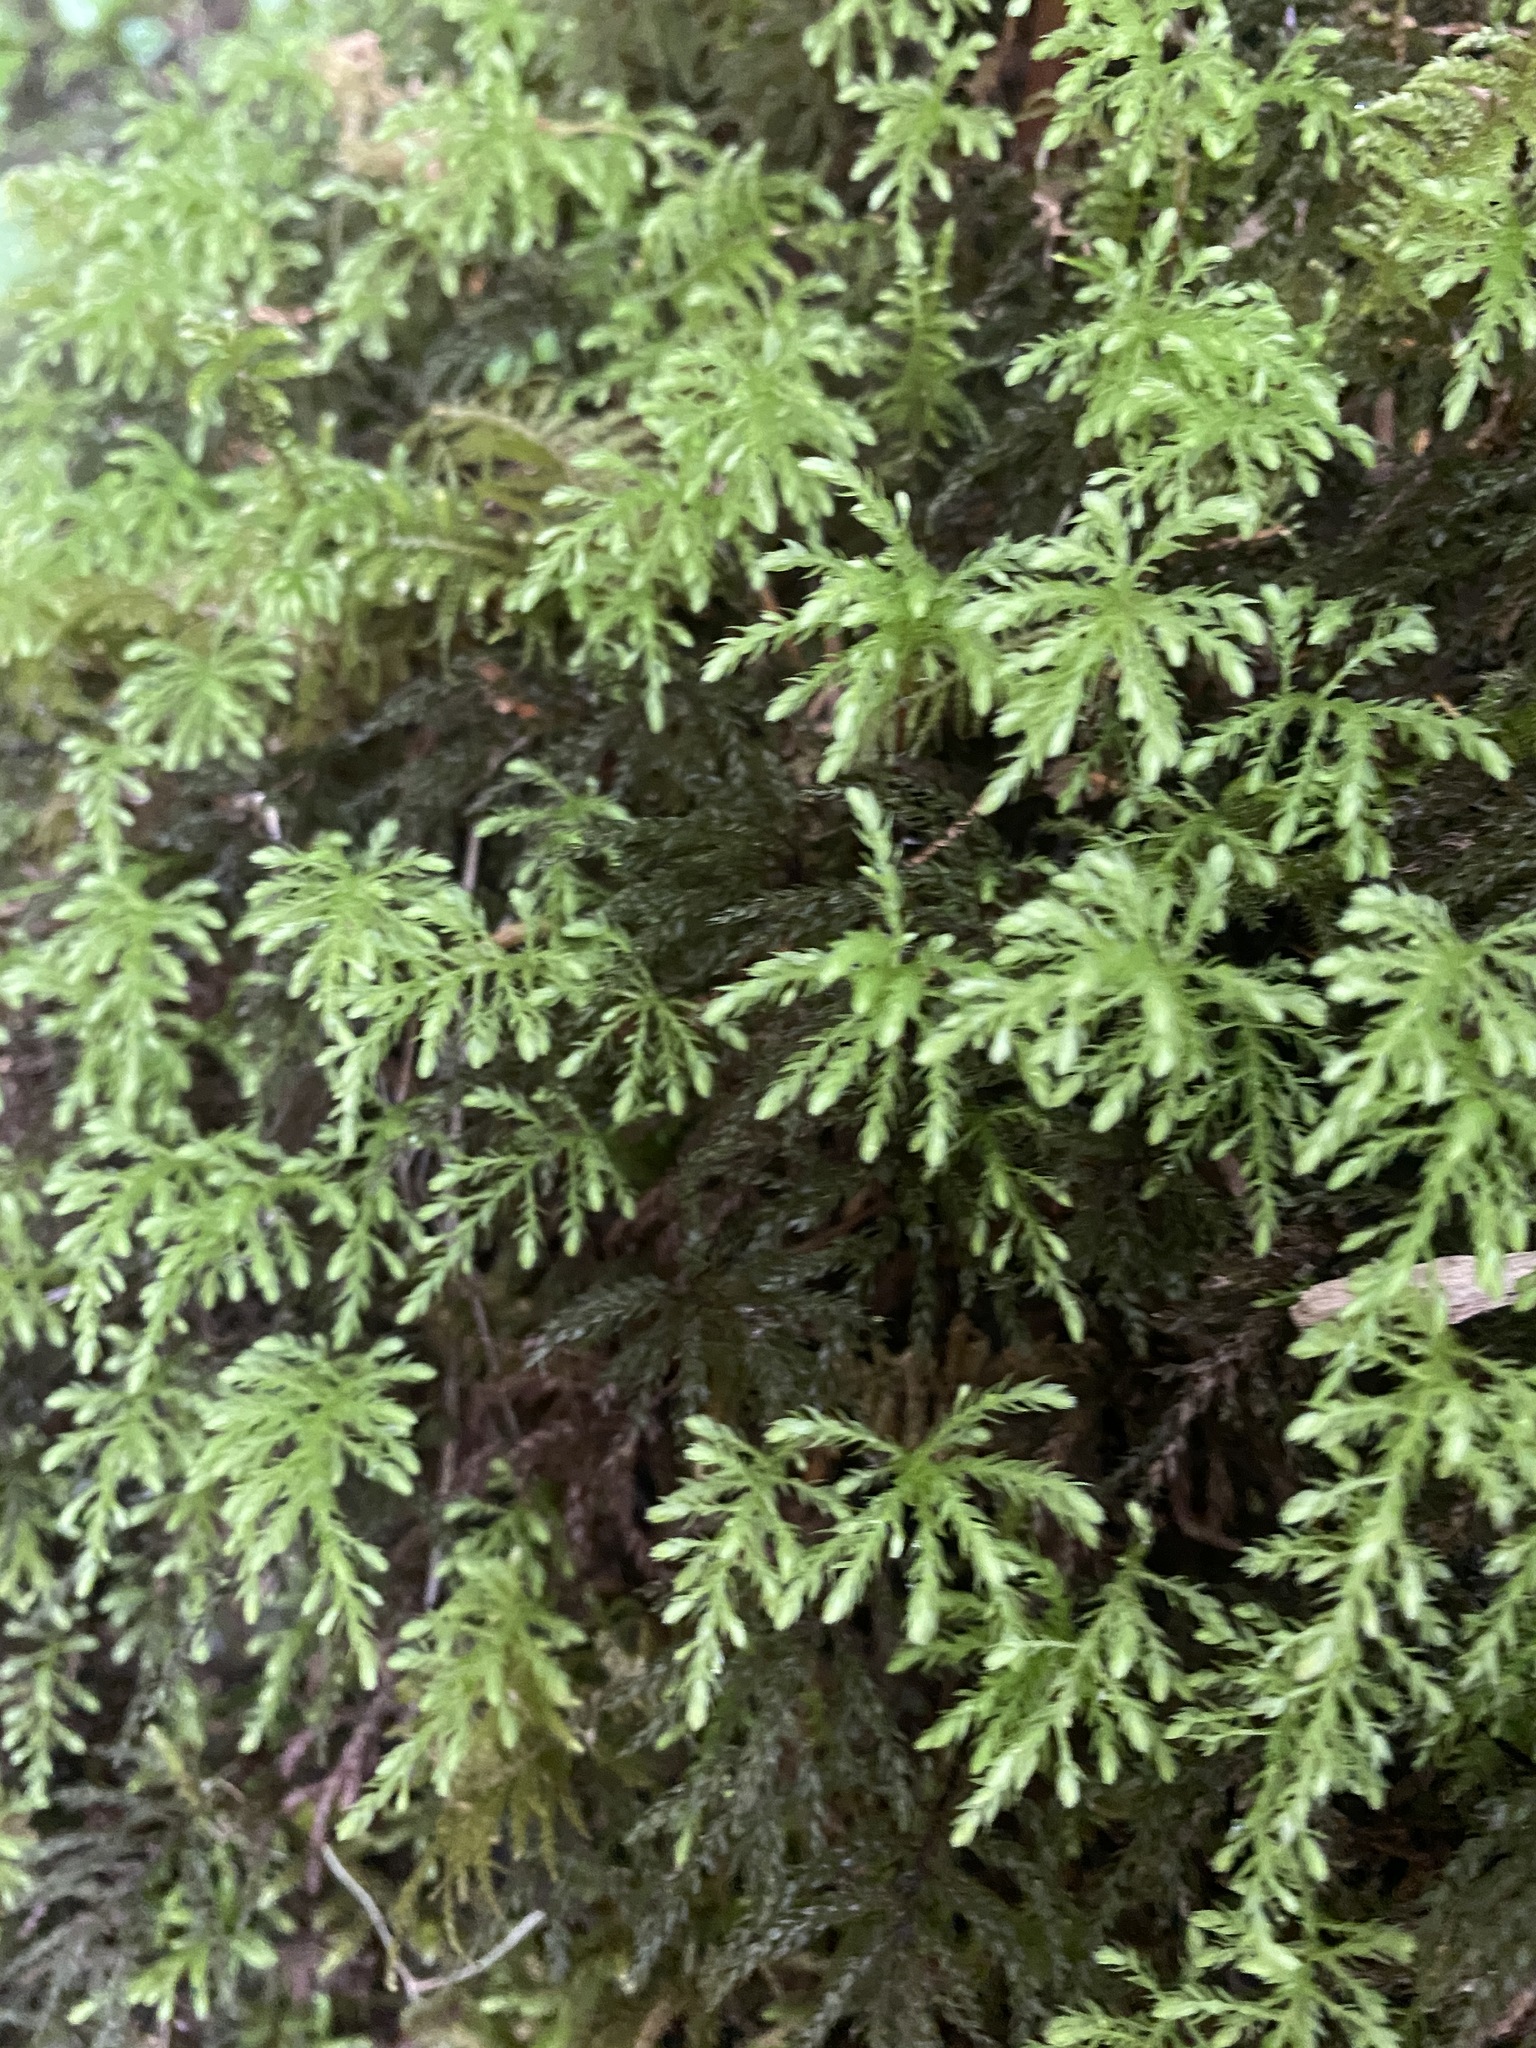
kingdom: Plantae
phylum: Bryophyta
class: Bryopsida
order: Bryales
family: Mniaceae
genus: Leucolepis
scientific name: Leucolepis acanthoneura
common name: Leucolepis umbrella moss
